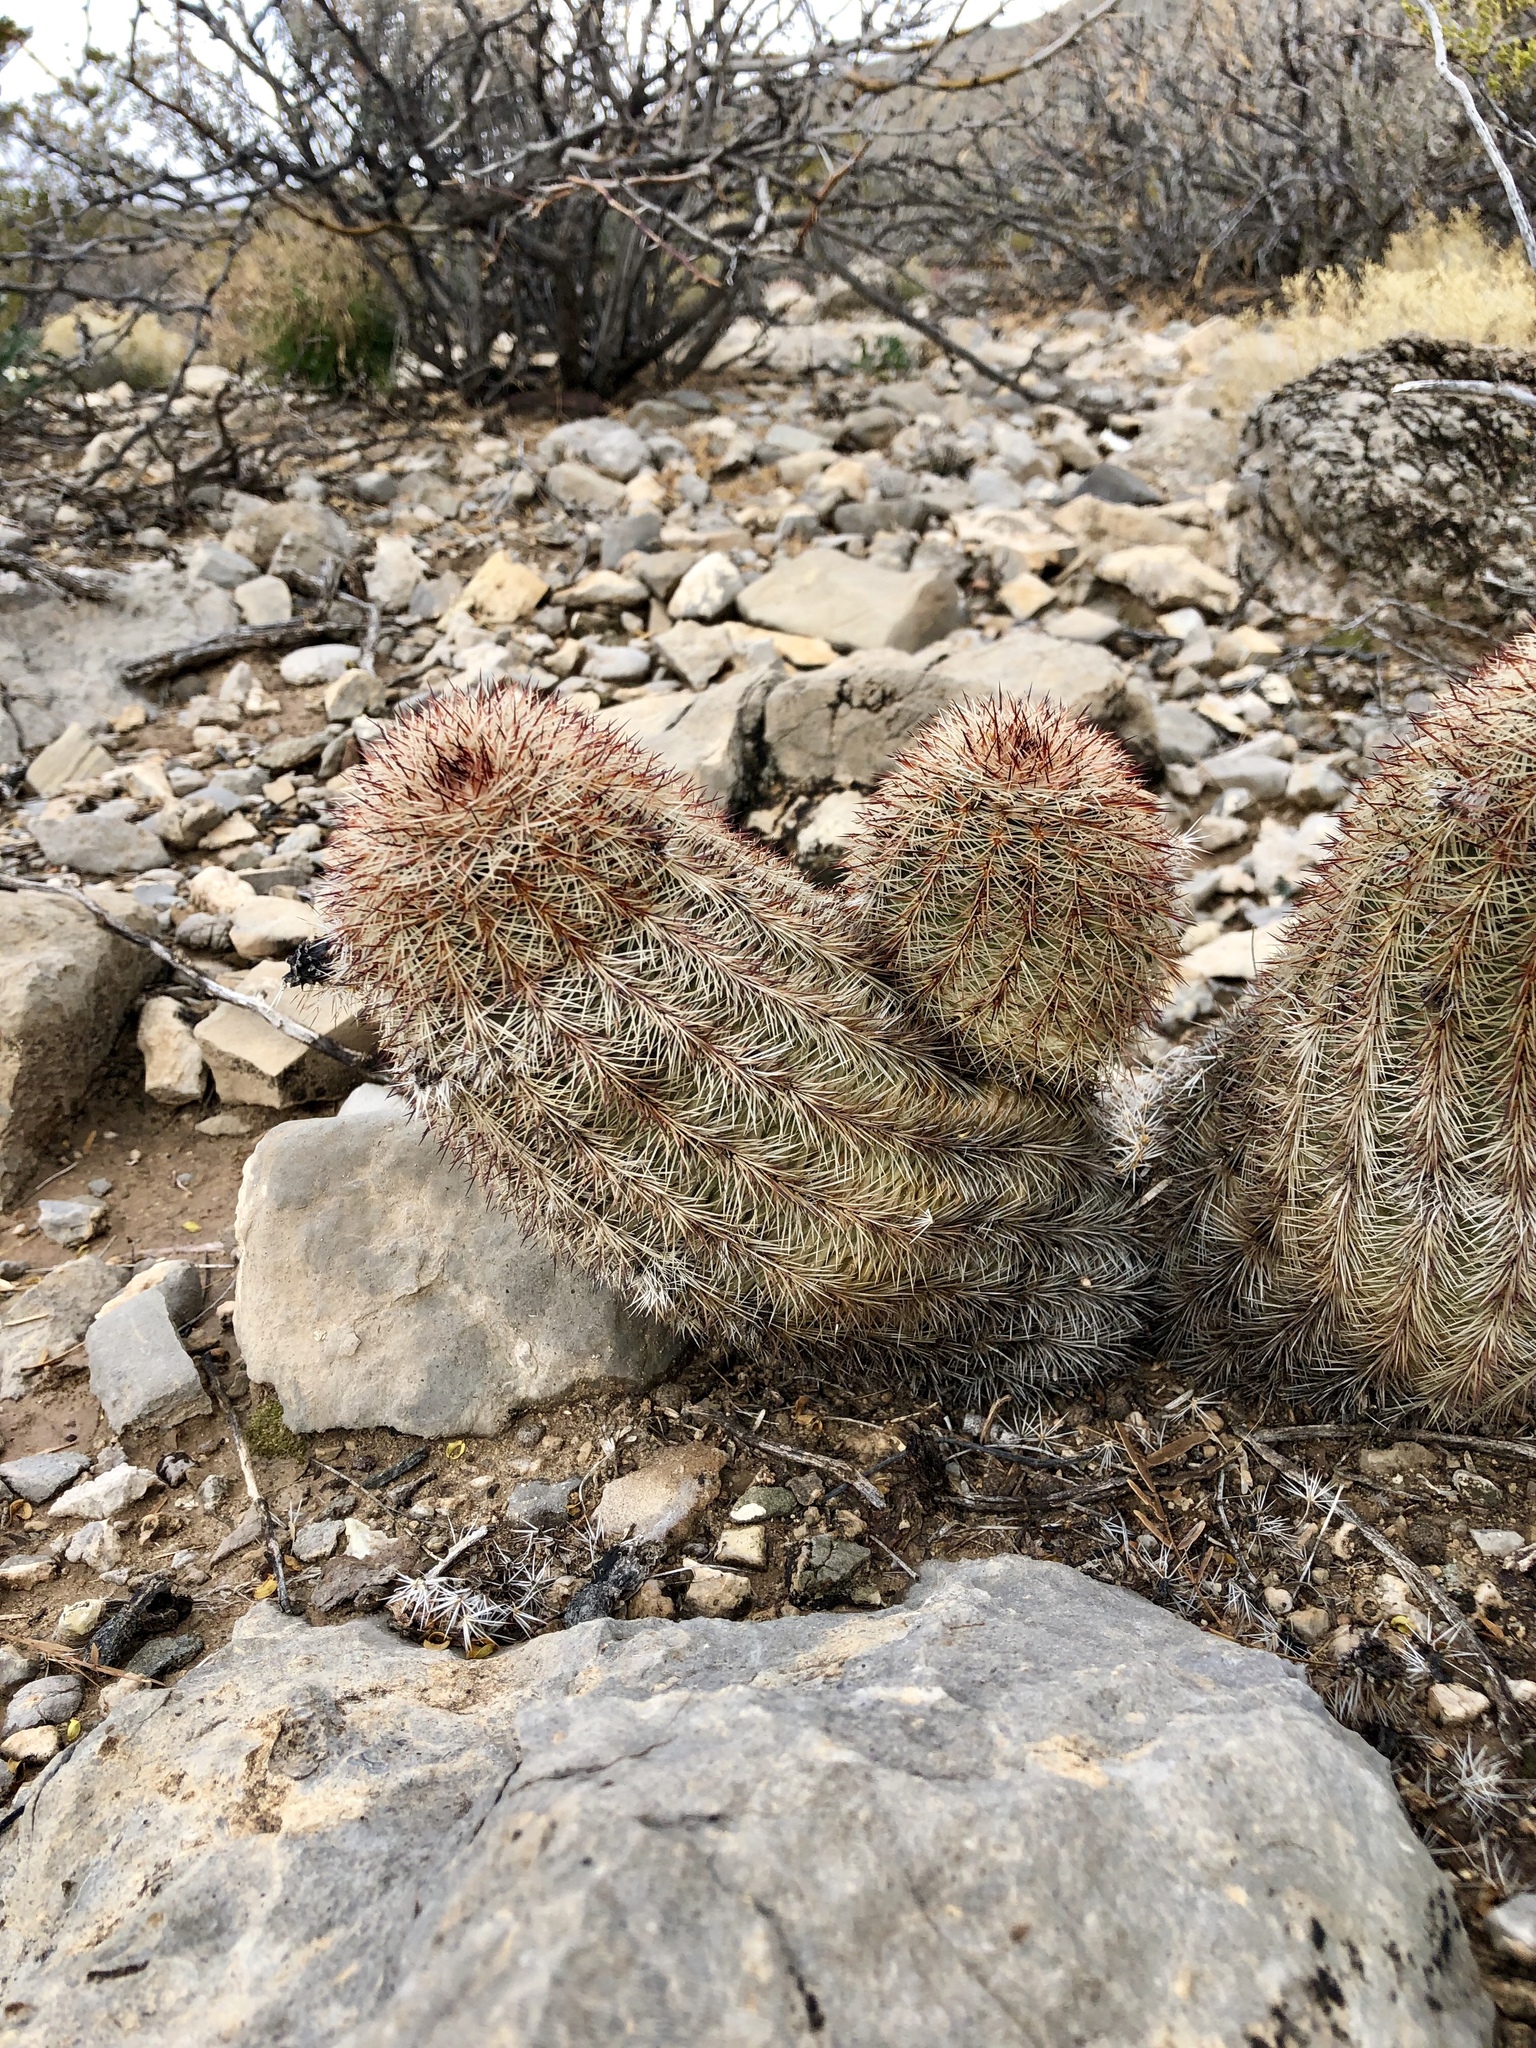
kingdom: Plantae
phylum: Tracheophyta
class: Magnoliopsida
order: Caryophyllales
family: Cactaceae
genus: Echinocereus
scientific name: Echinocereus dasyacanthus
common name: Spiny hedgehog cactus
